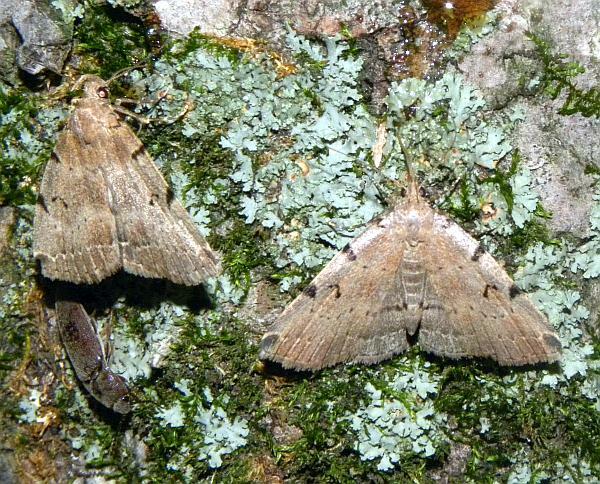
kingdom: Animalia
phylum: Arthropoda
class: Insecta
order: Lepidoptera
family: Erebidae
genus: Zanclognatha
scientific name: Zanclognatha lituralis
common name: Lettered fan-foot
